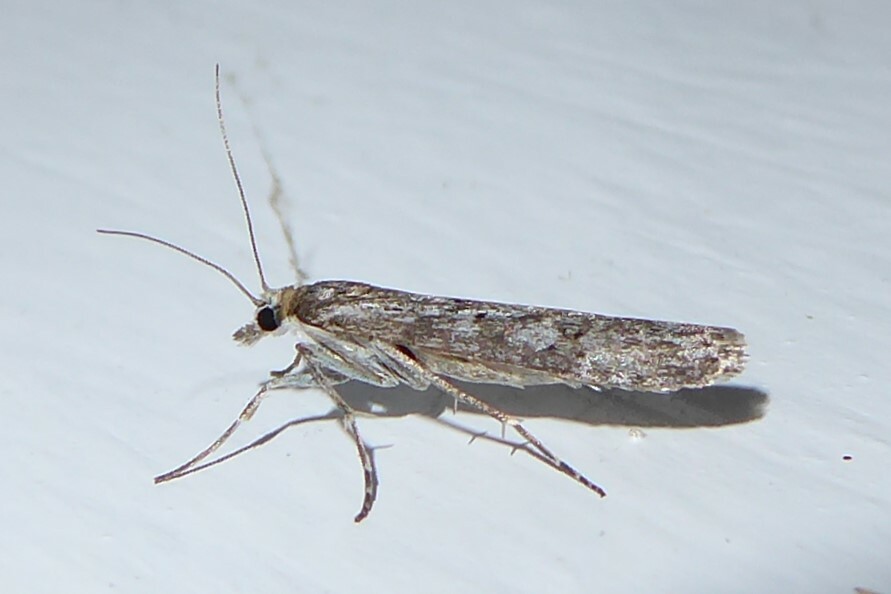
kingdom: Animalia
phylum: Arthropoda
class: Insecta
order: Lepidoptera
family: Crambidae
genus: Eudonia
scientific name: Eudonia leptalea
